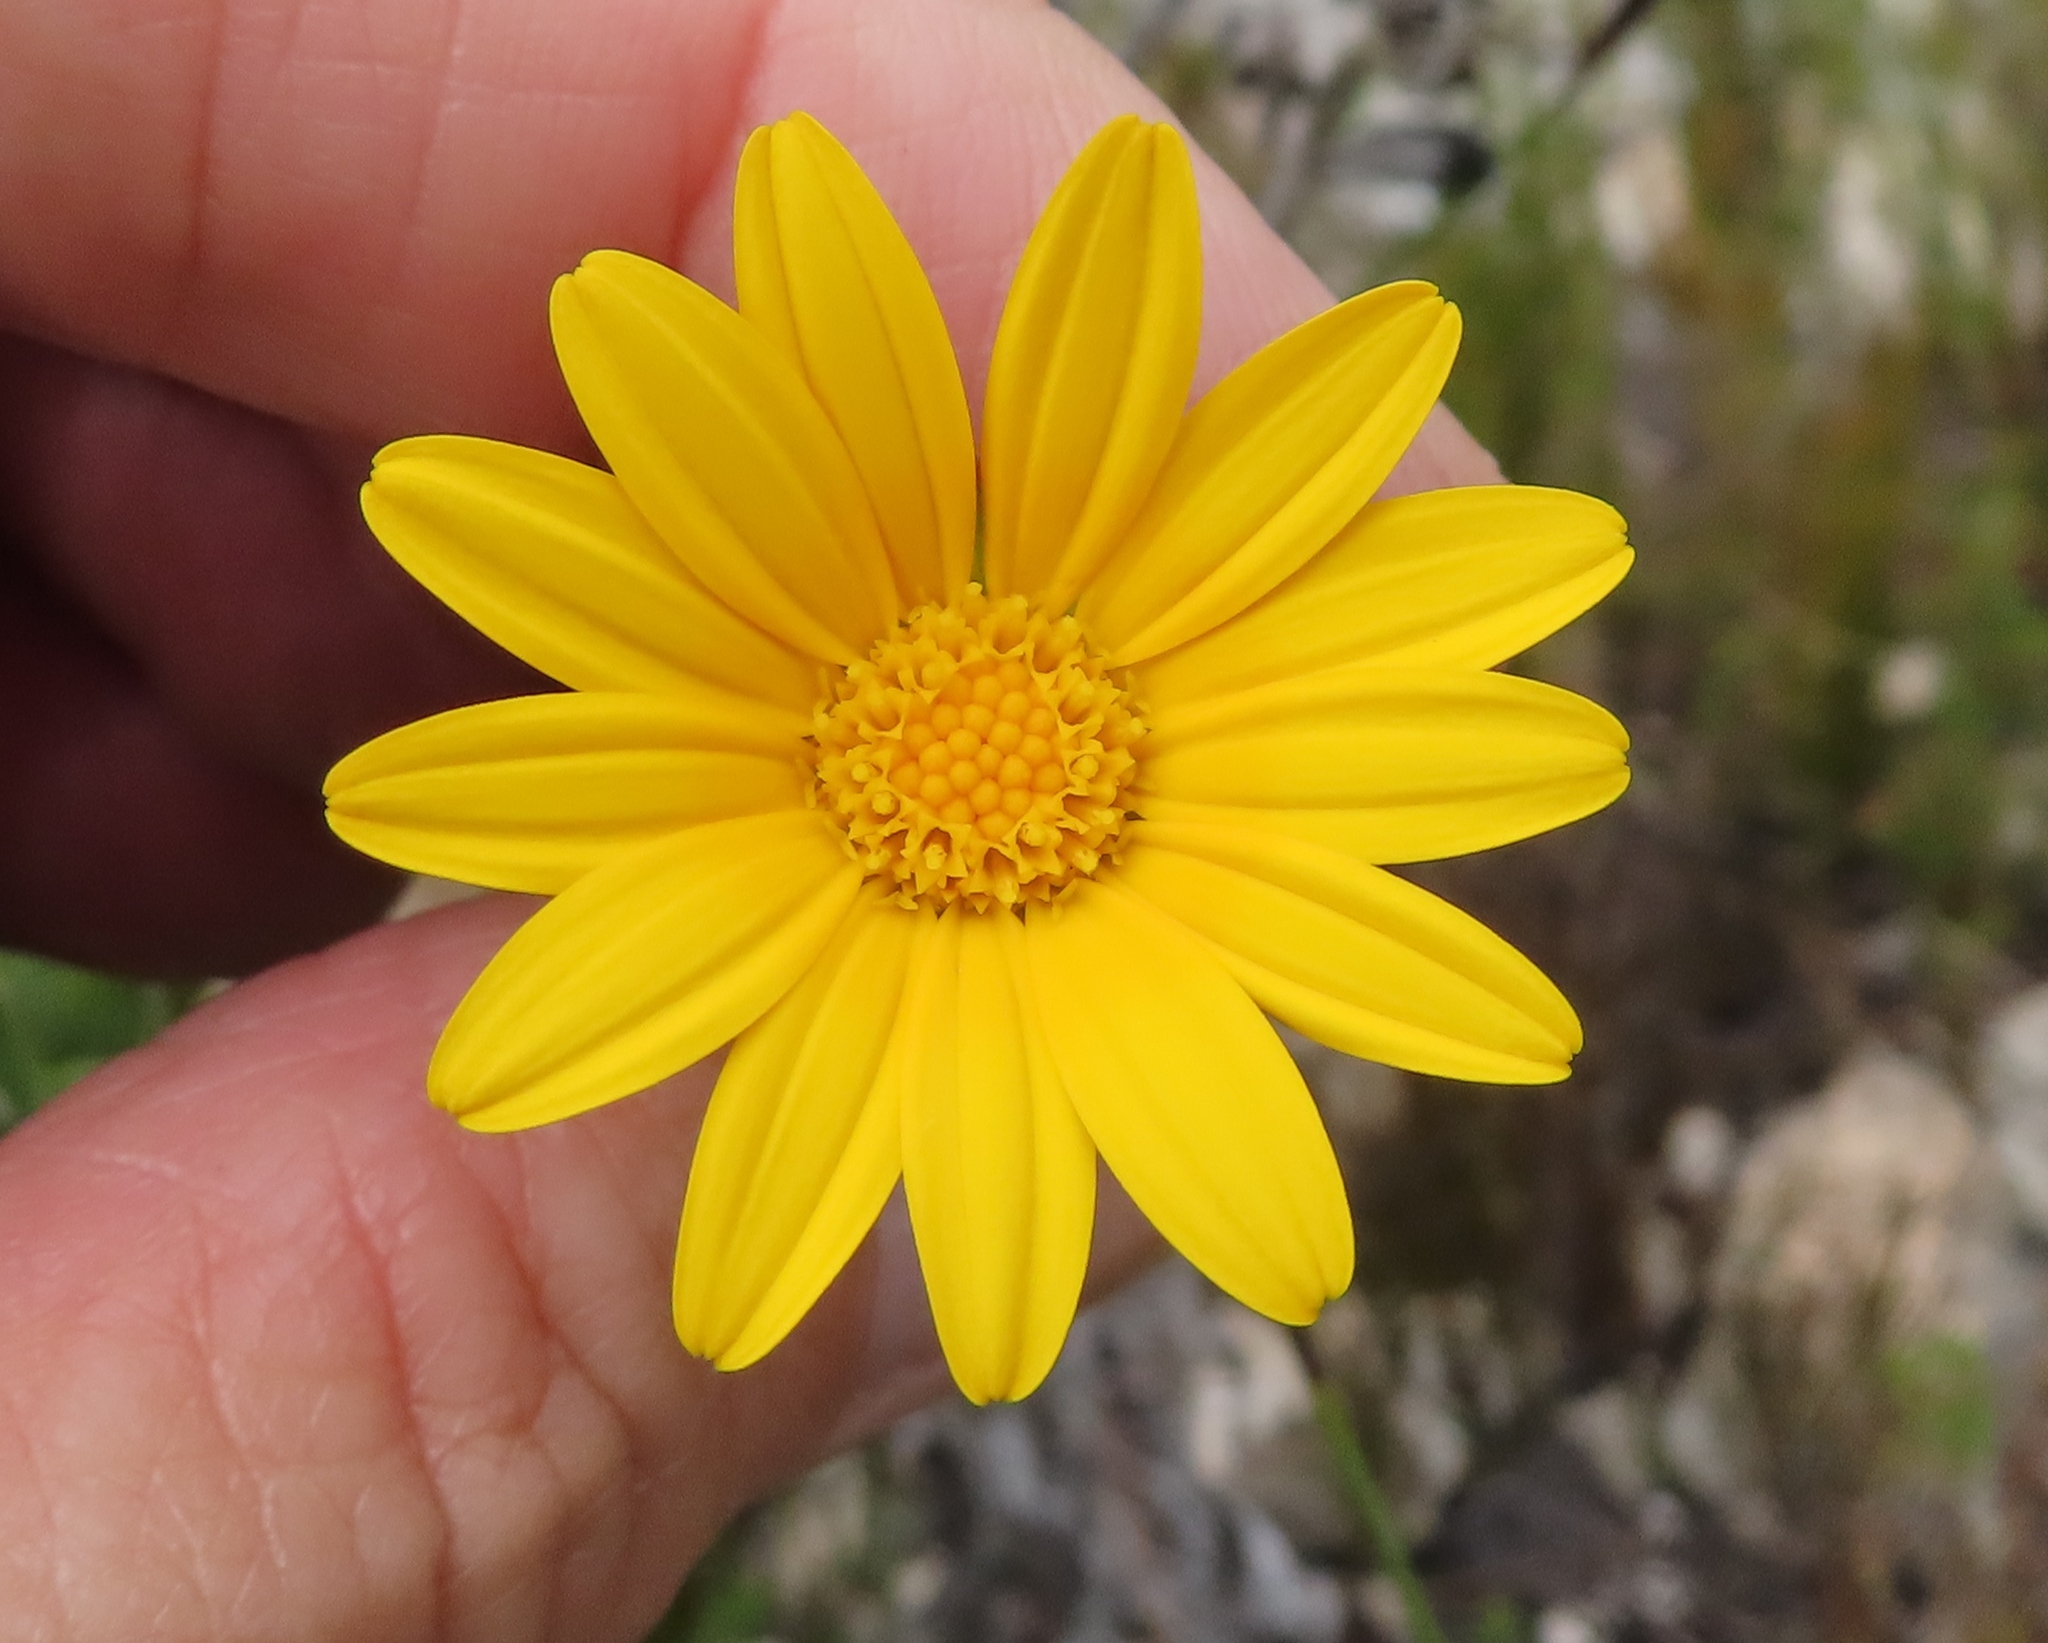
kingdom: Plantae
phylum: Tracheophyta
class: Magnoliopsida
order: Asterales
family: Asteraceae
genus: Osteospermum
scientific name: Osteospermum australe
